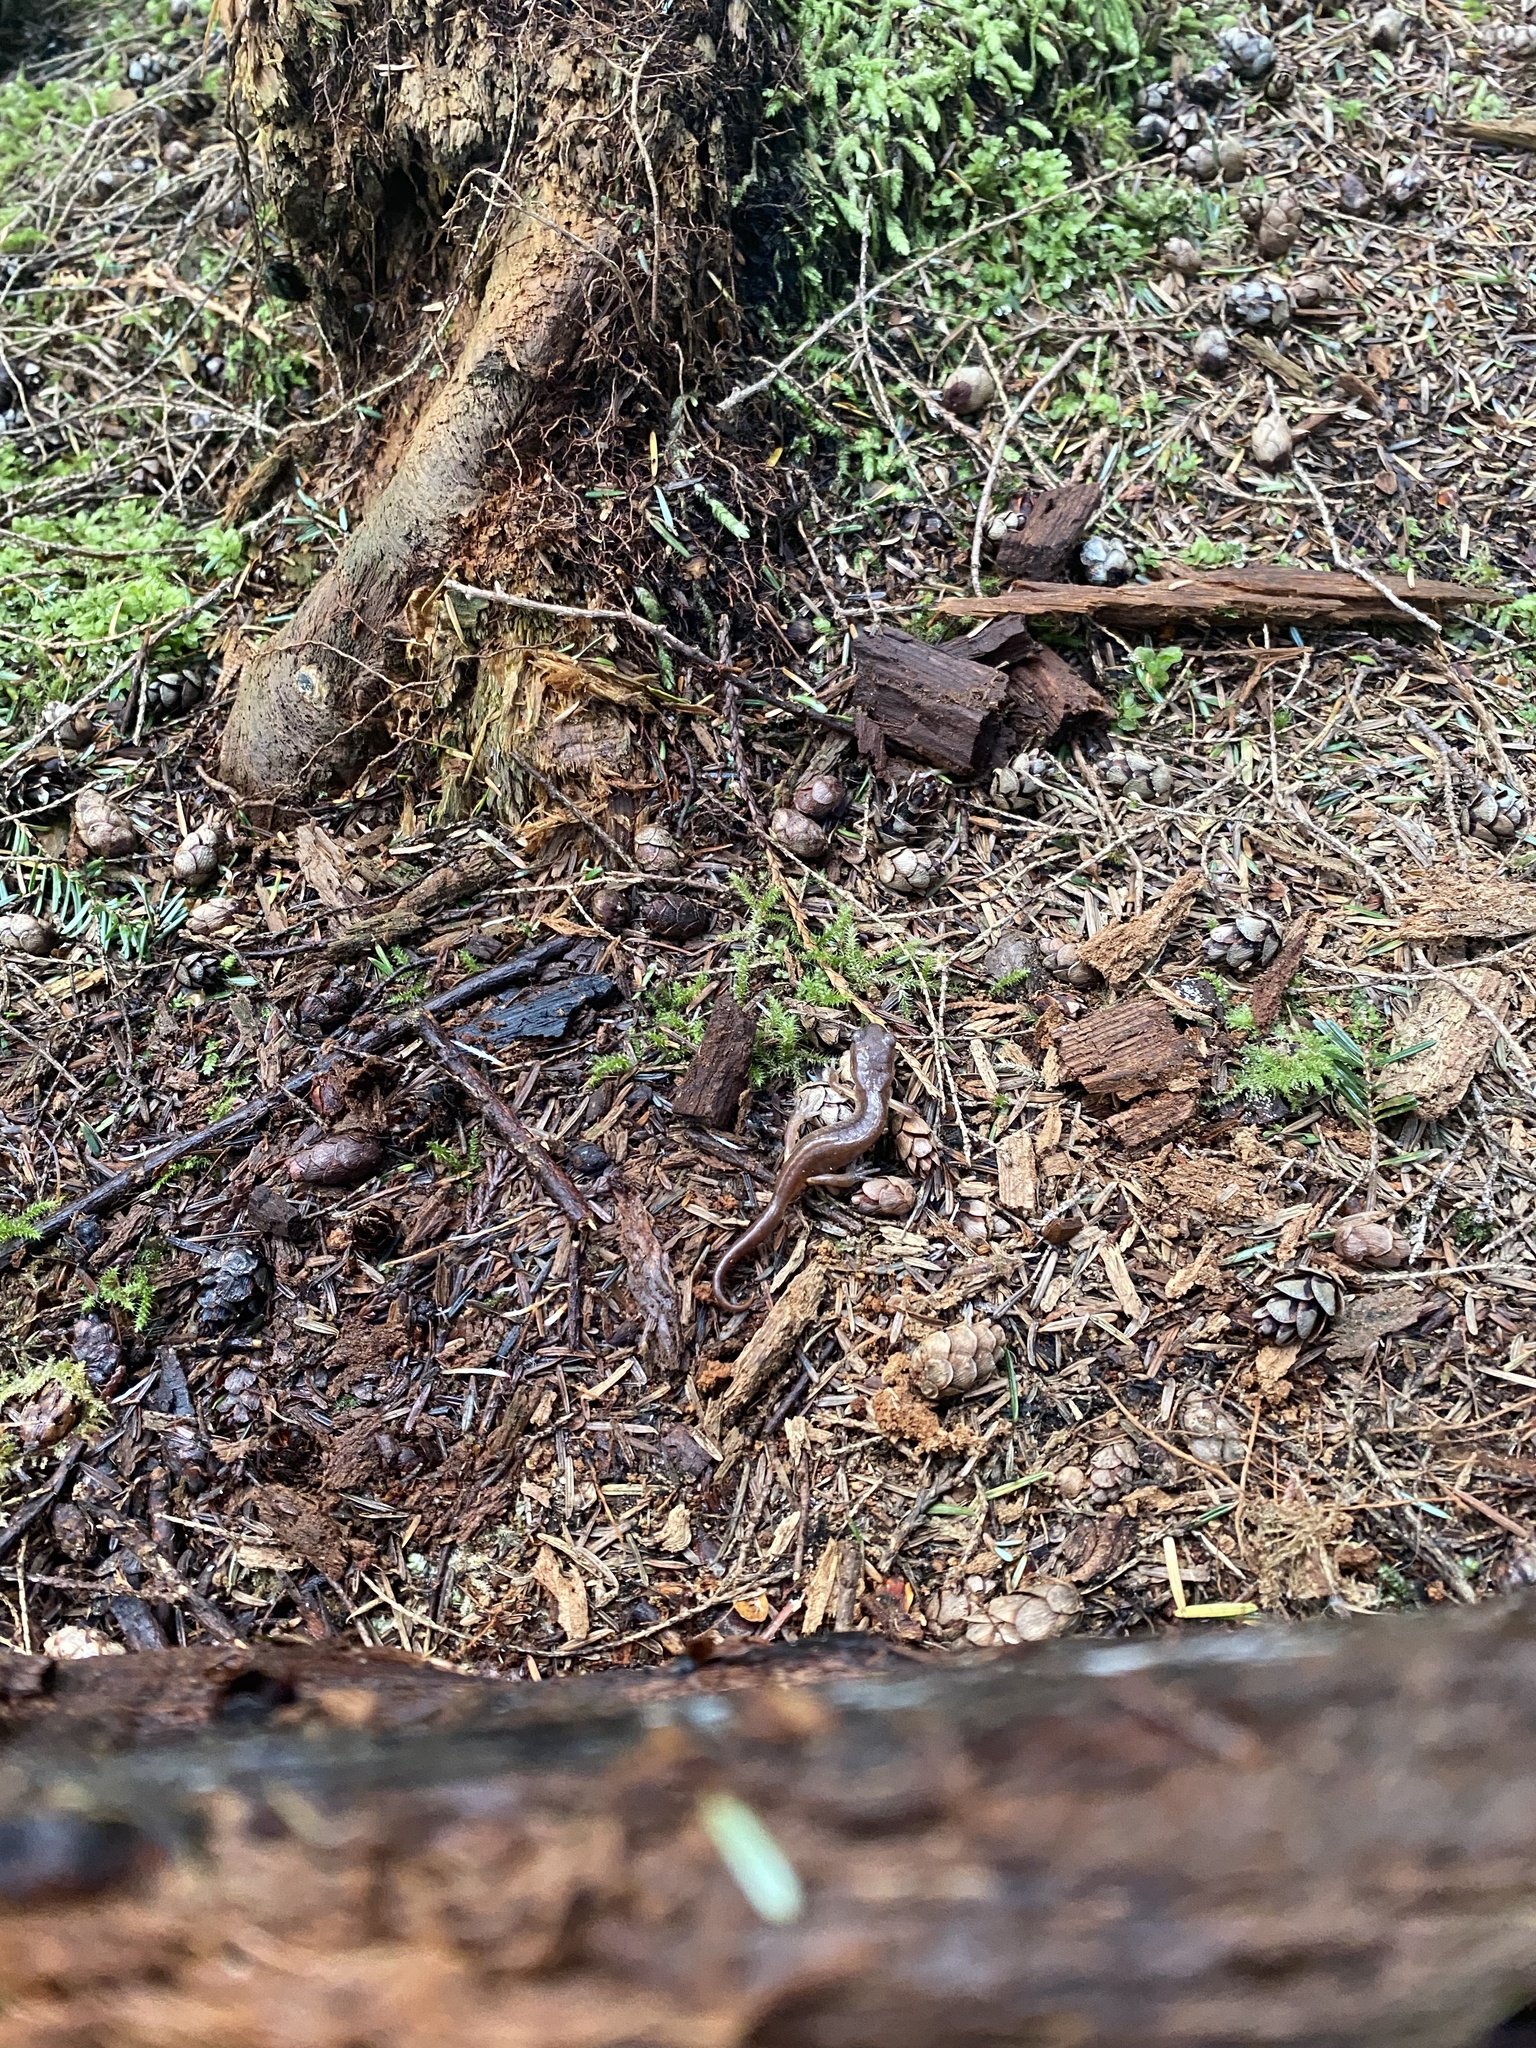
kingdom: Animalia
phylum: Chordata
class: Amphibia
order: Caudata
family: Plethodontidae
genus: Ensatina
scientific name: Ensatina eschscholtzii
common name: Ensatina
